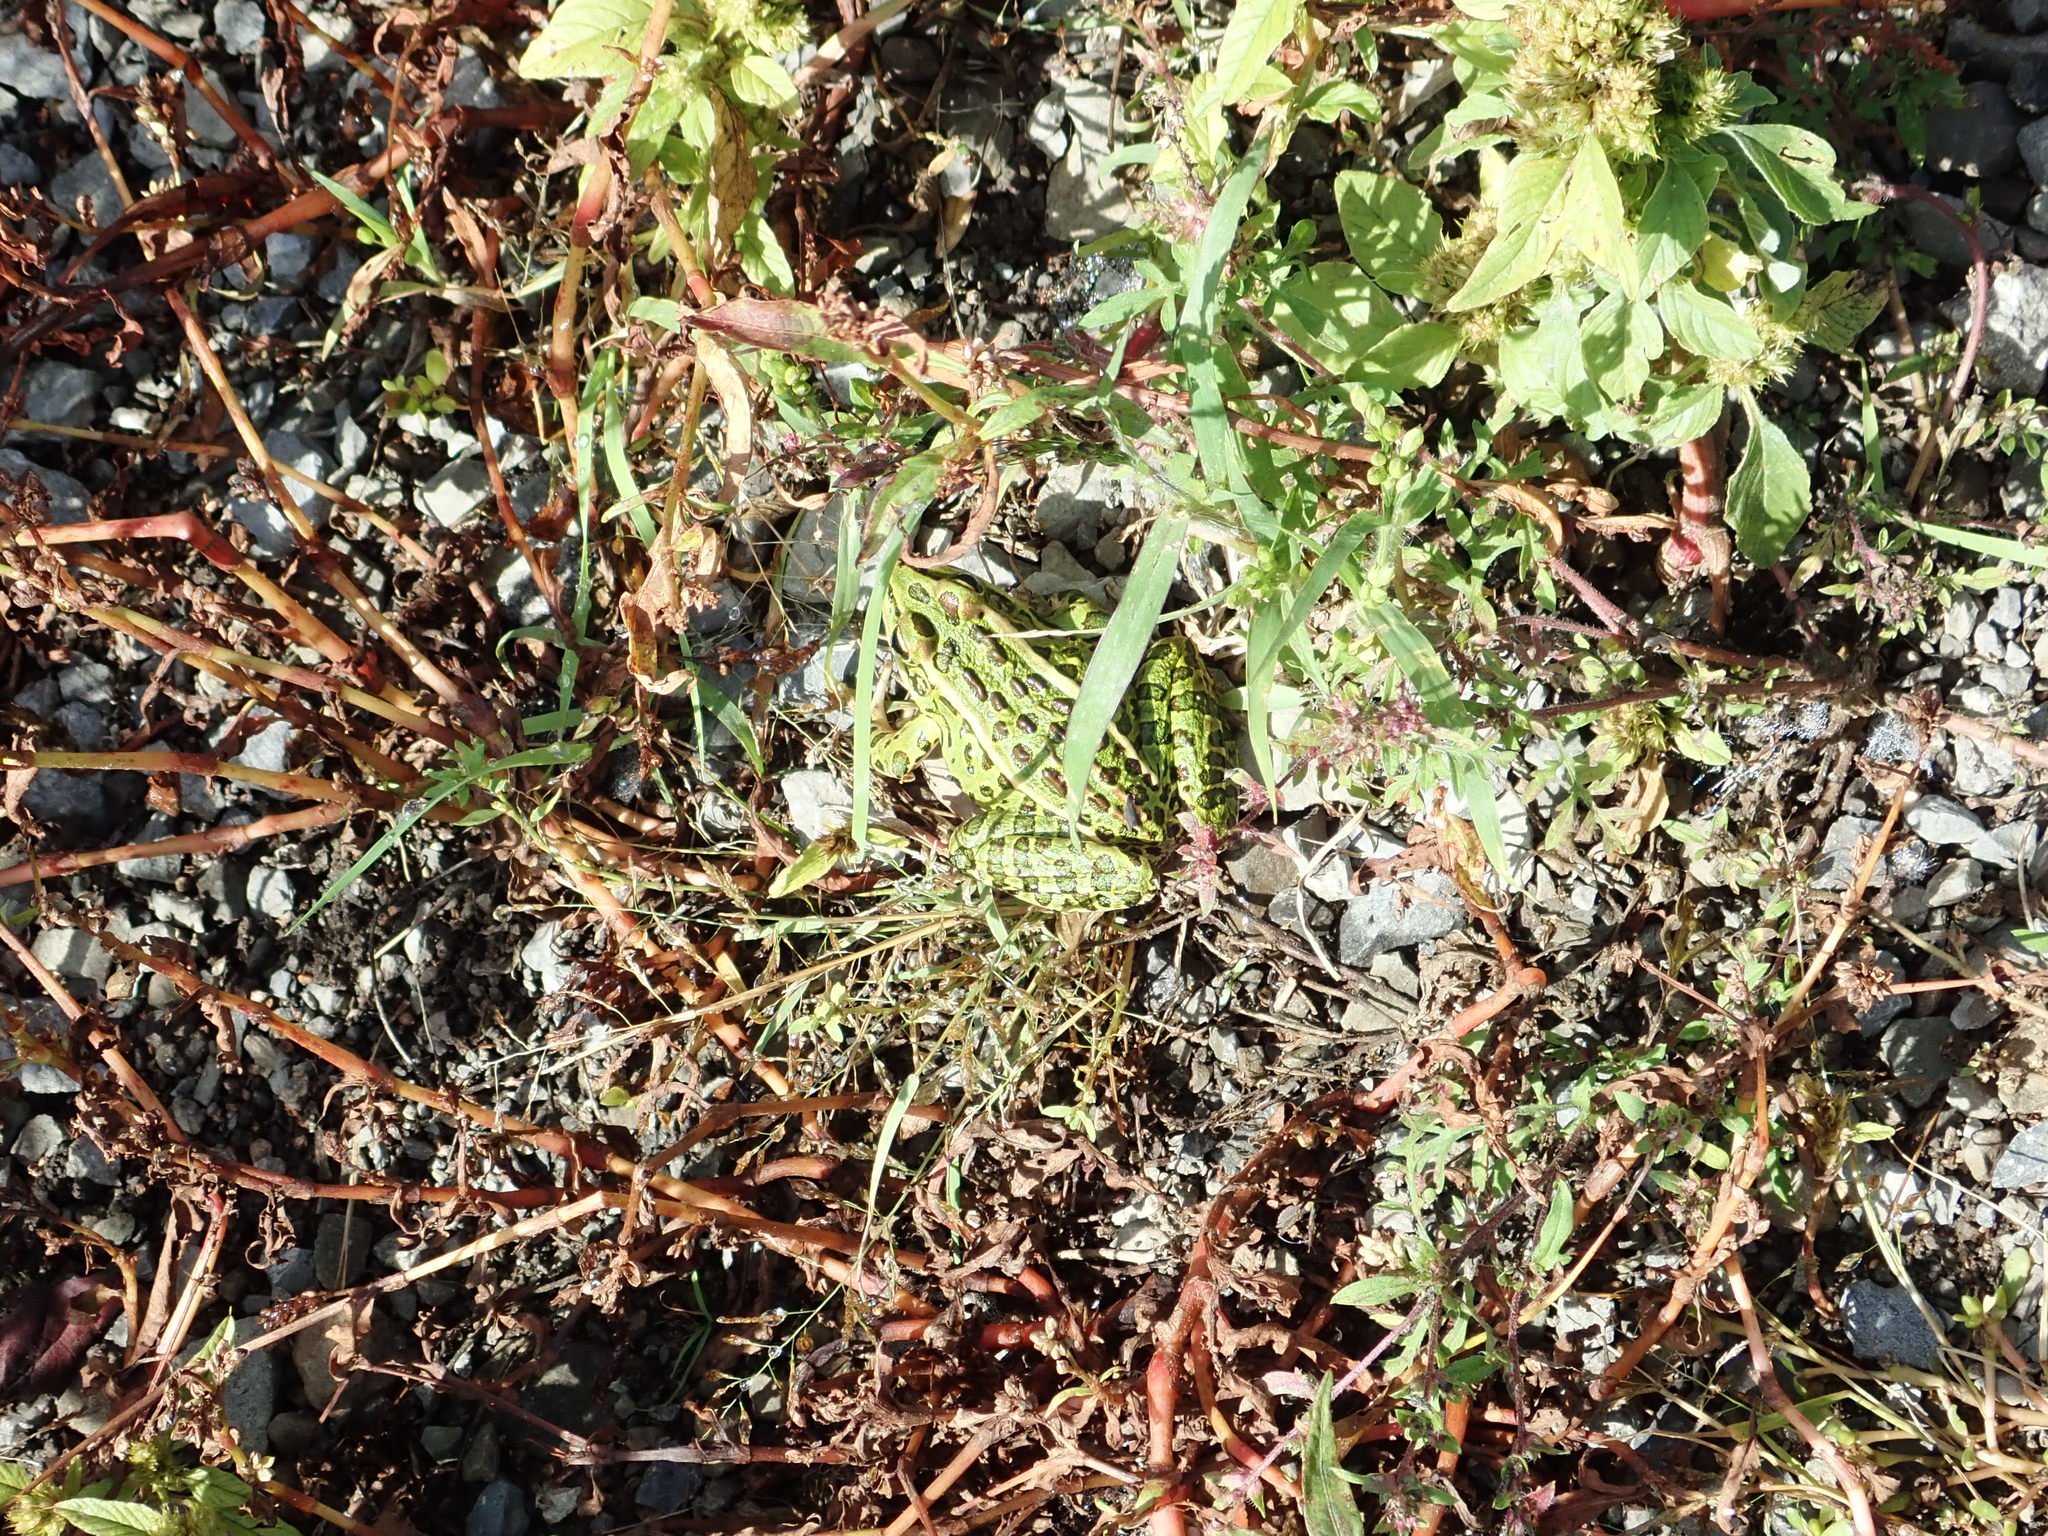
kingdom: Animalia
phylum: Chordata
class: Amphibia
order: Anura
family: Ranidae
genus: Lithobates
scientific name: Lithobates pipiens
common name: Northern leopard frog
